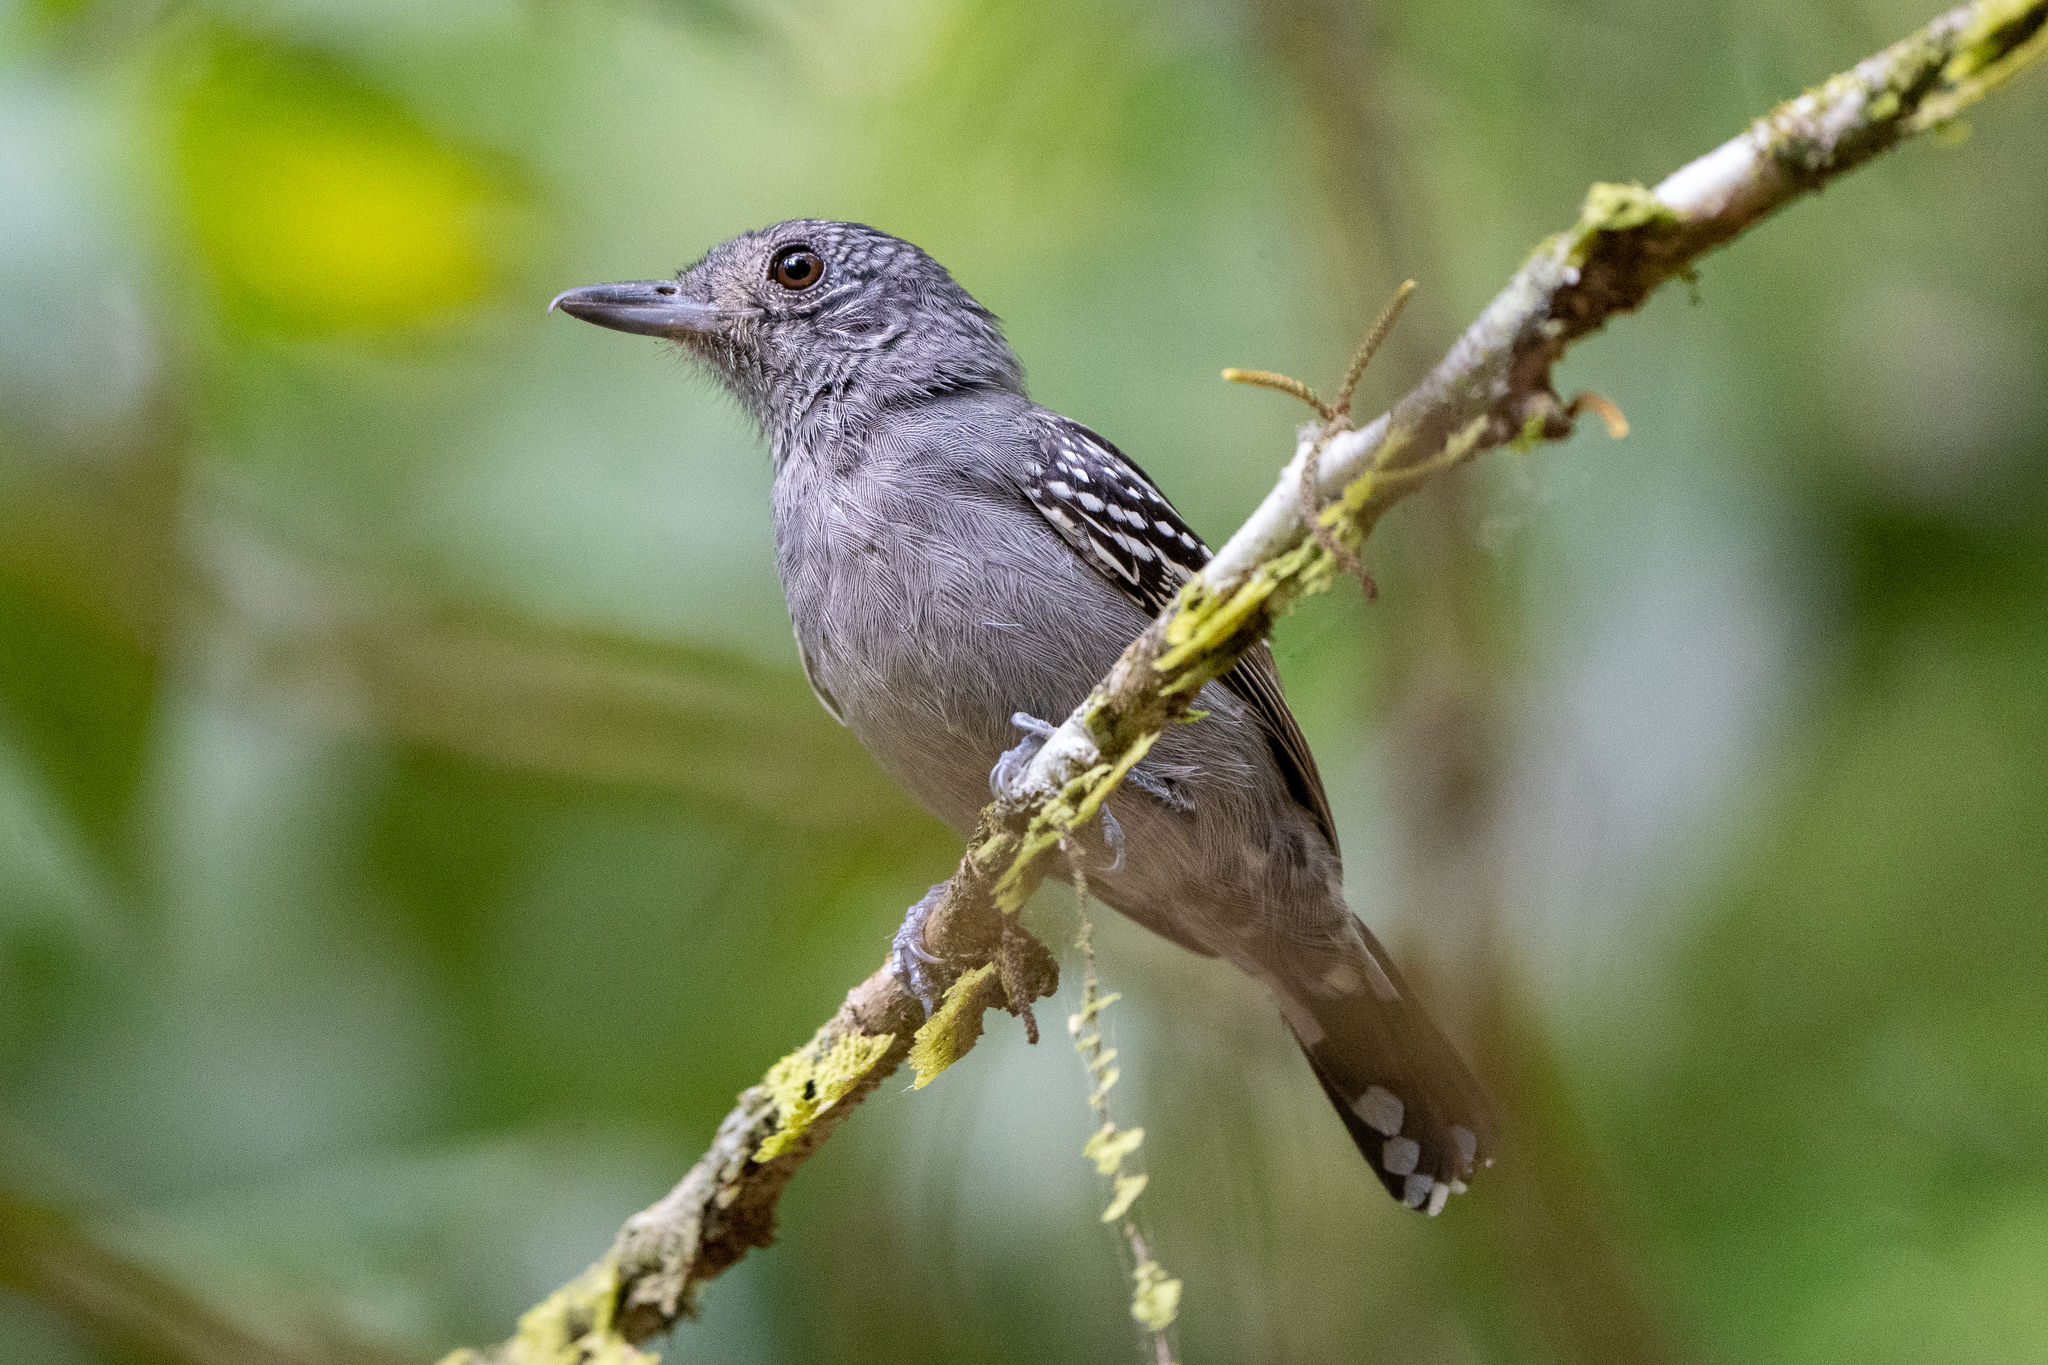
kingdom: Animalia
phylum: Chordata
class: Aves
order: Passeriformes
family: Thamnophilidae
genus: Thamnophilus
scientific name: Thamnophilus atrinucha
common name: Black-crowned antshrike
